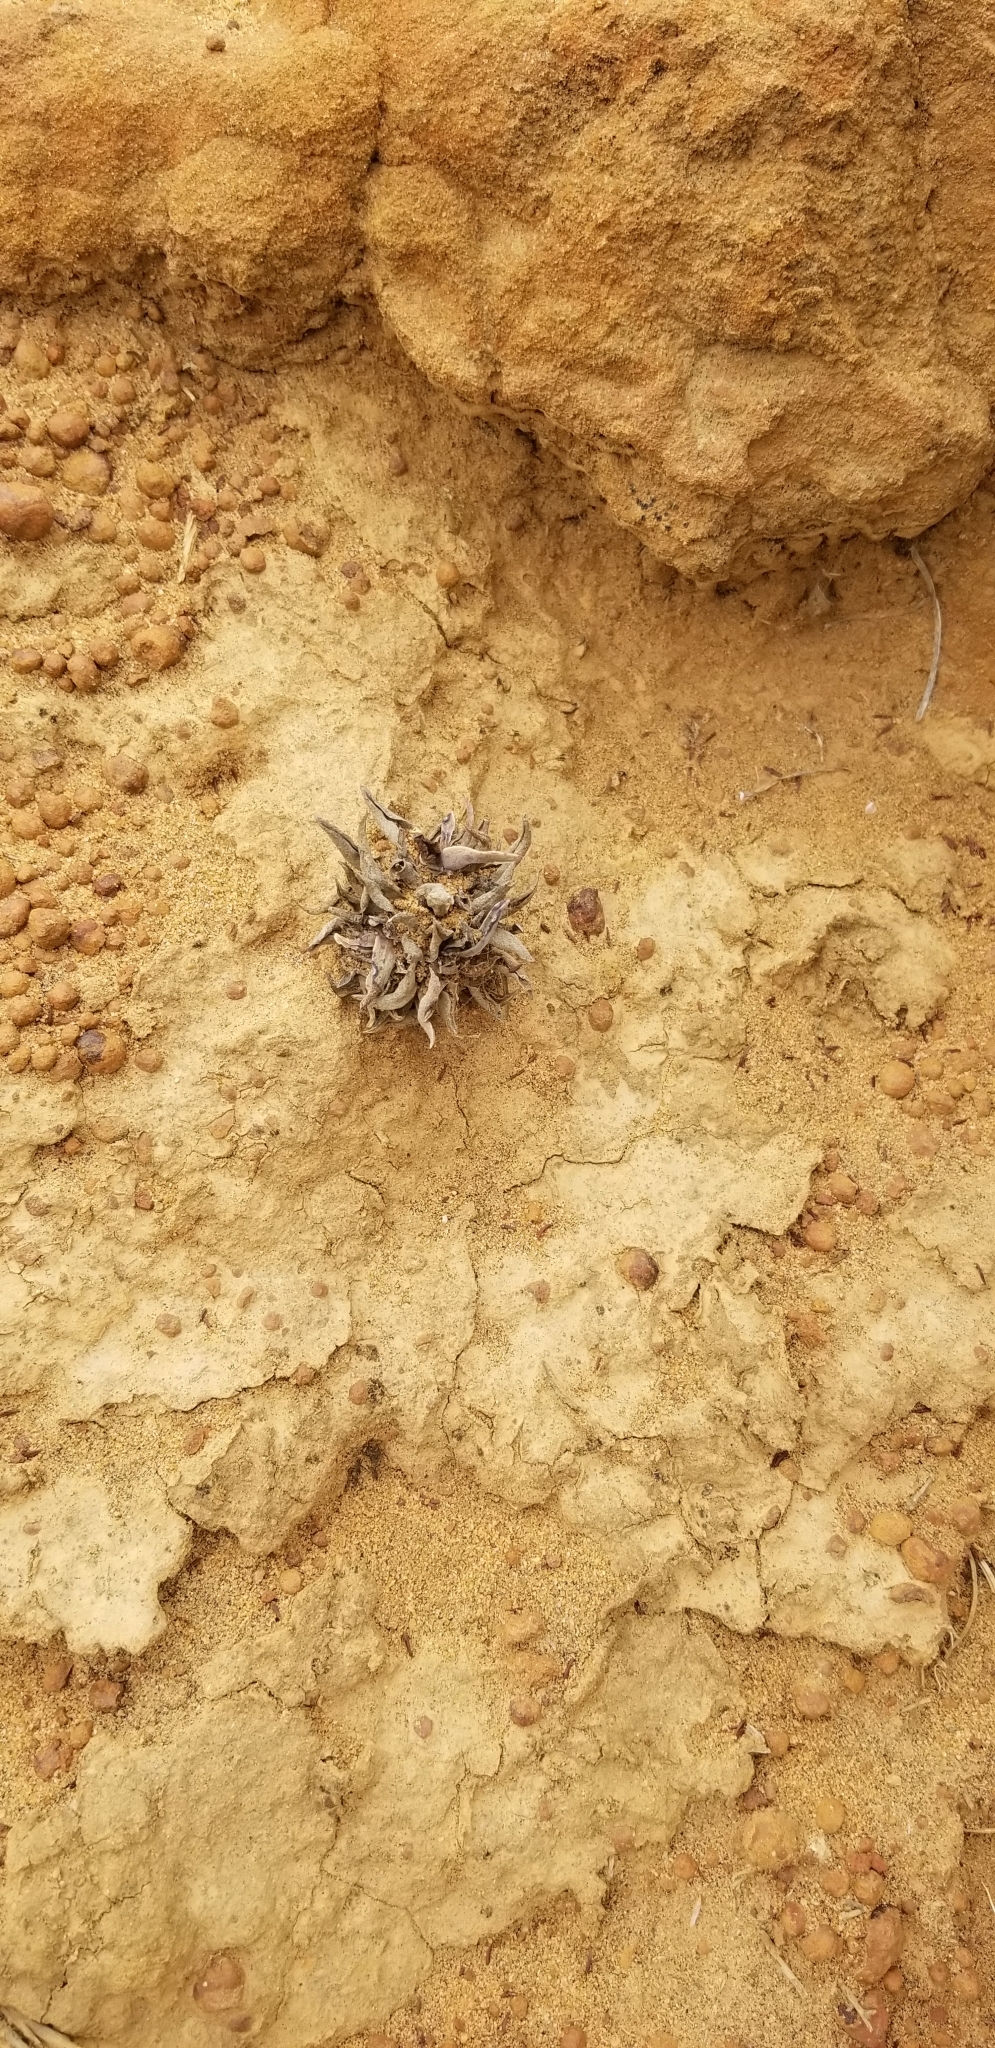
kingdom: Plantae
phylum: Tracheophyta
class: Magnoliopsida
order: Saxifragales
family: Crassulaceae
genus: Dudleya
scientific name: Dudleya lanceolata
